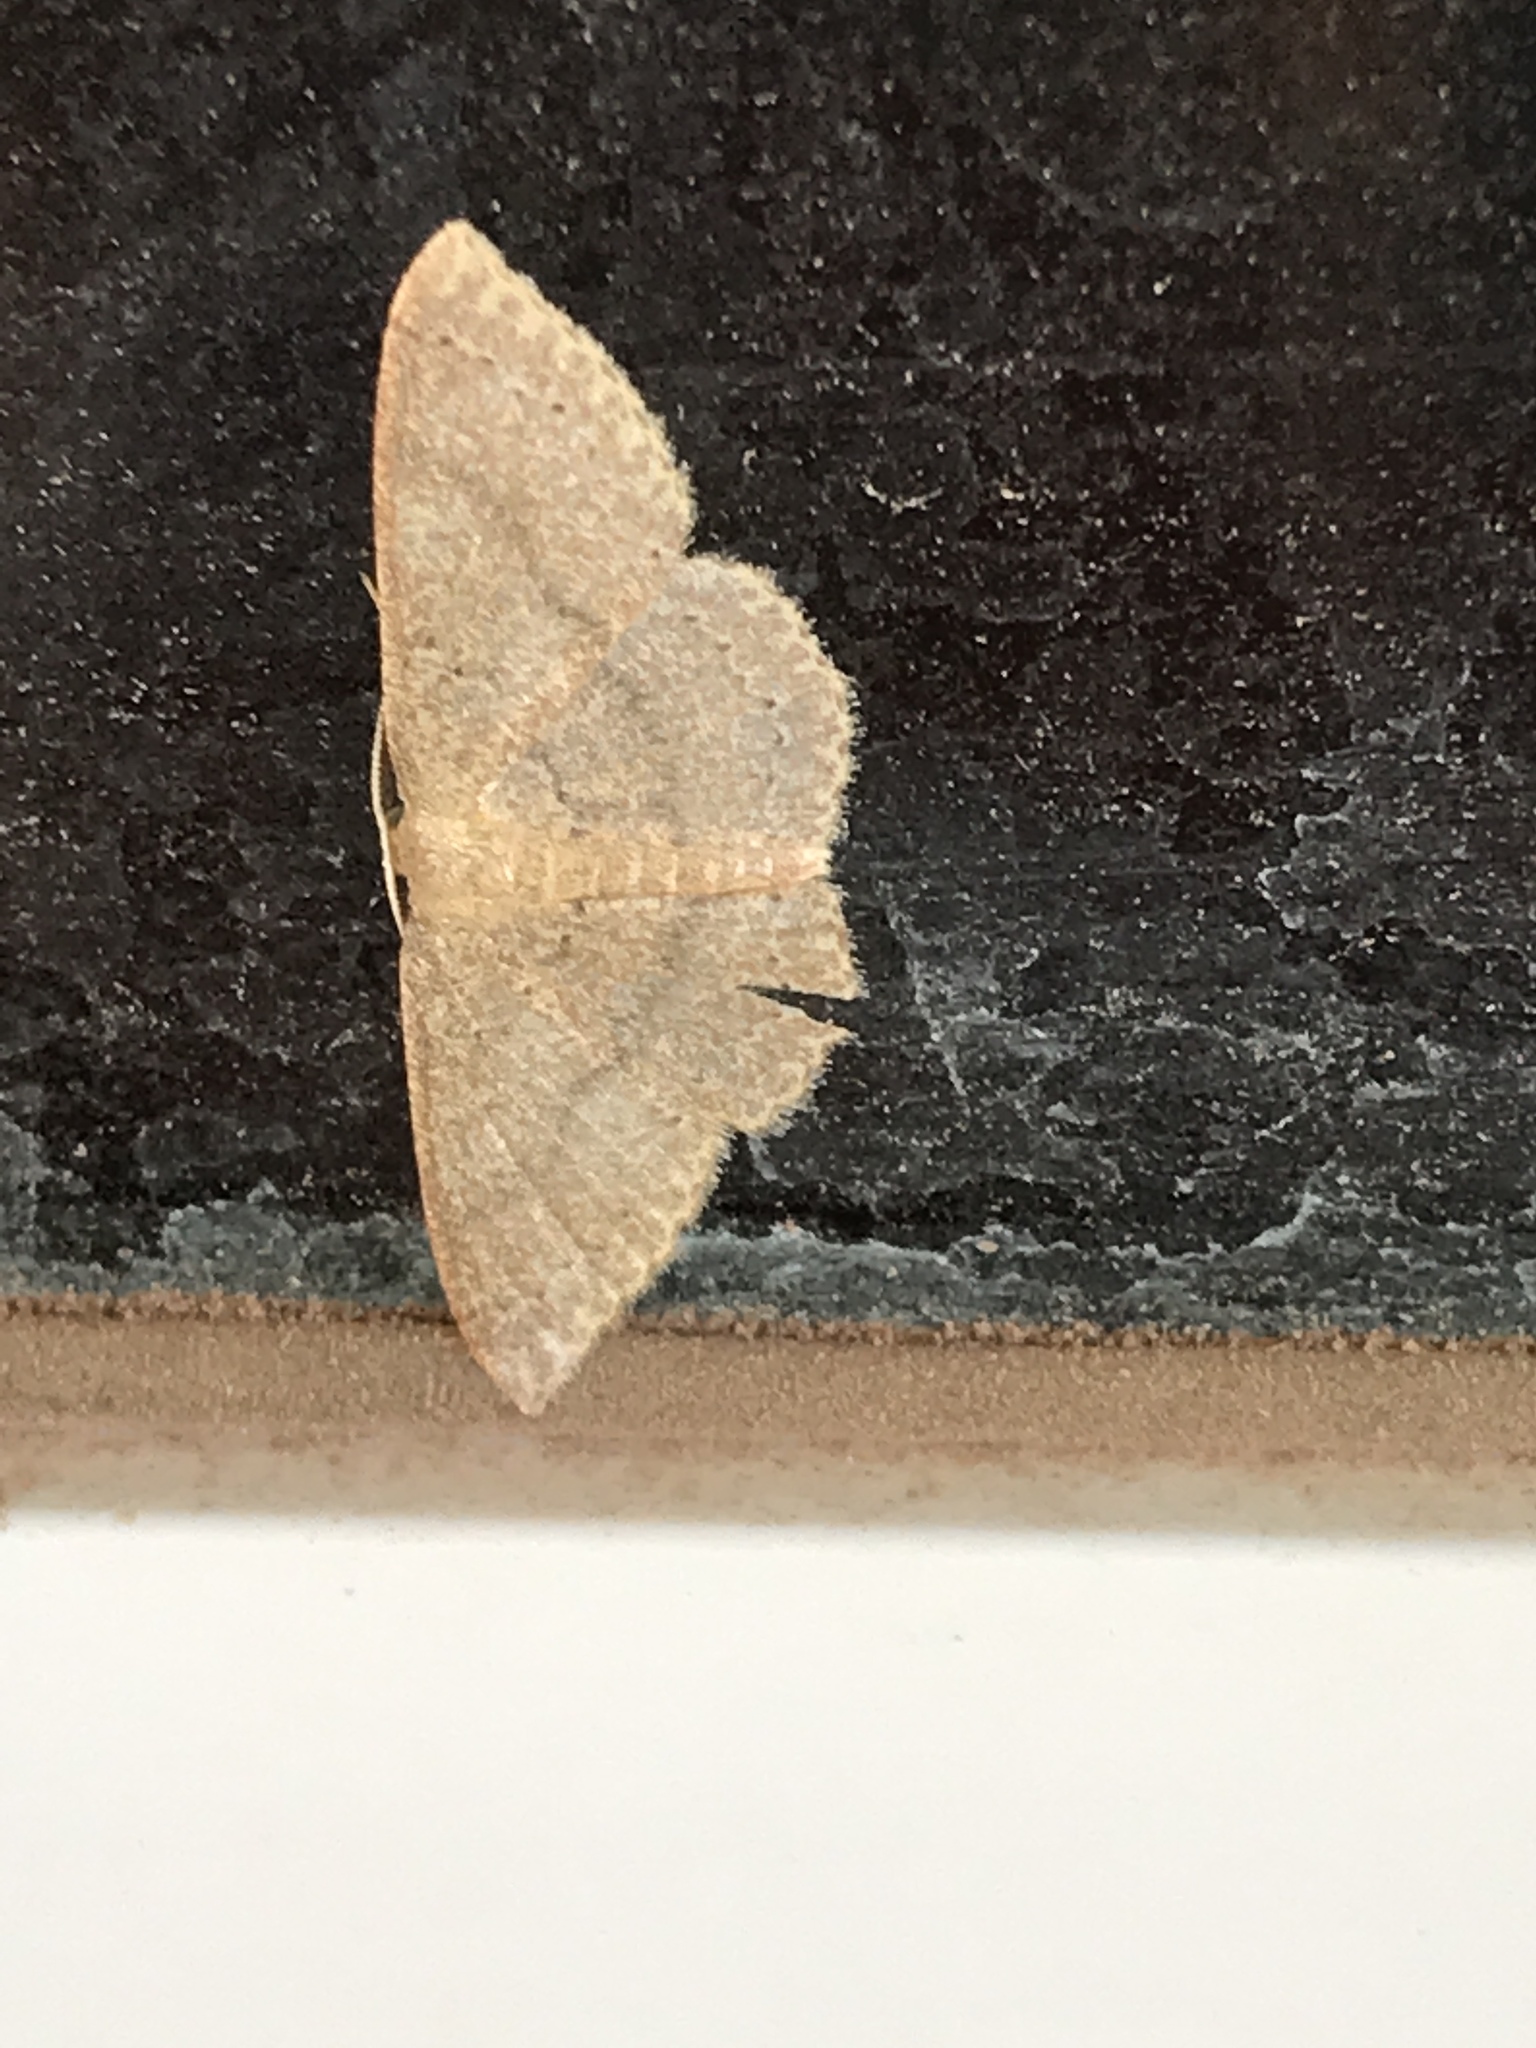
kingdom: Animalia
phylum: Arthropoda
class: Insecta
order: Lepidoptera
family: Geometridae
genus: Pleuroprucha
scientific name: Pleuroprucha insulsaria
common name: Common tan wave
